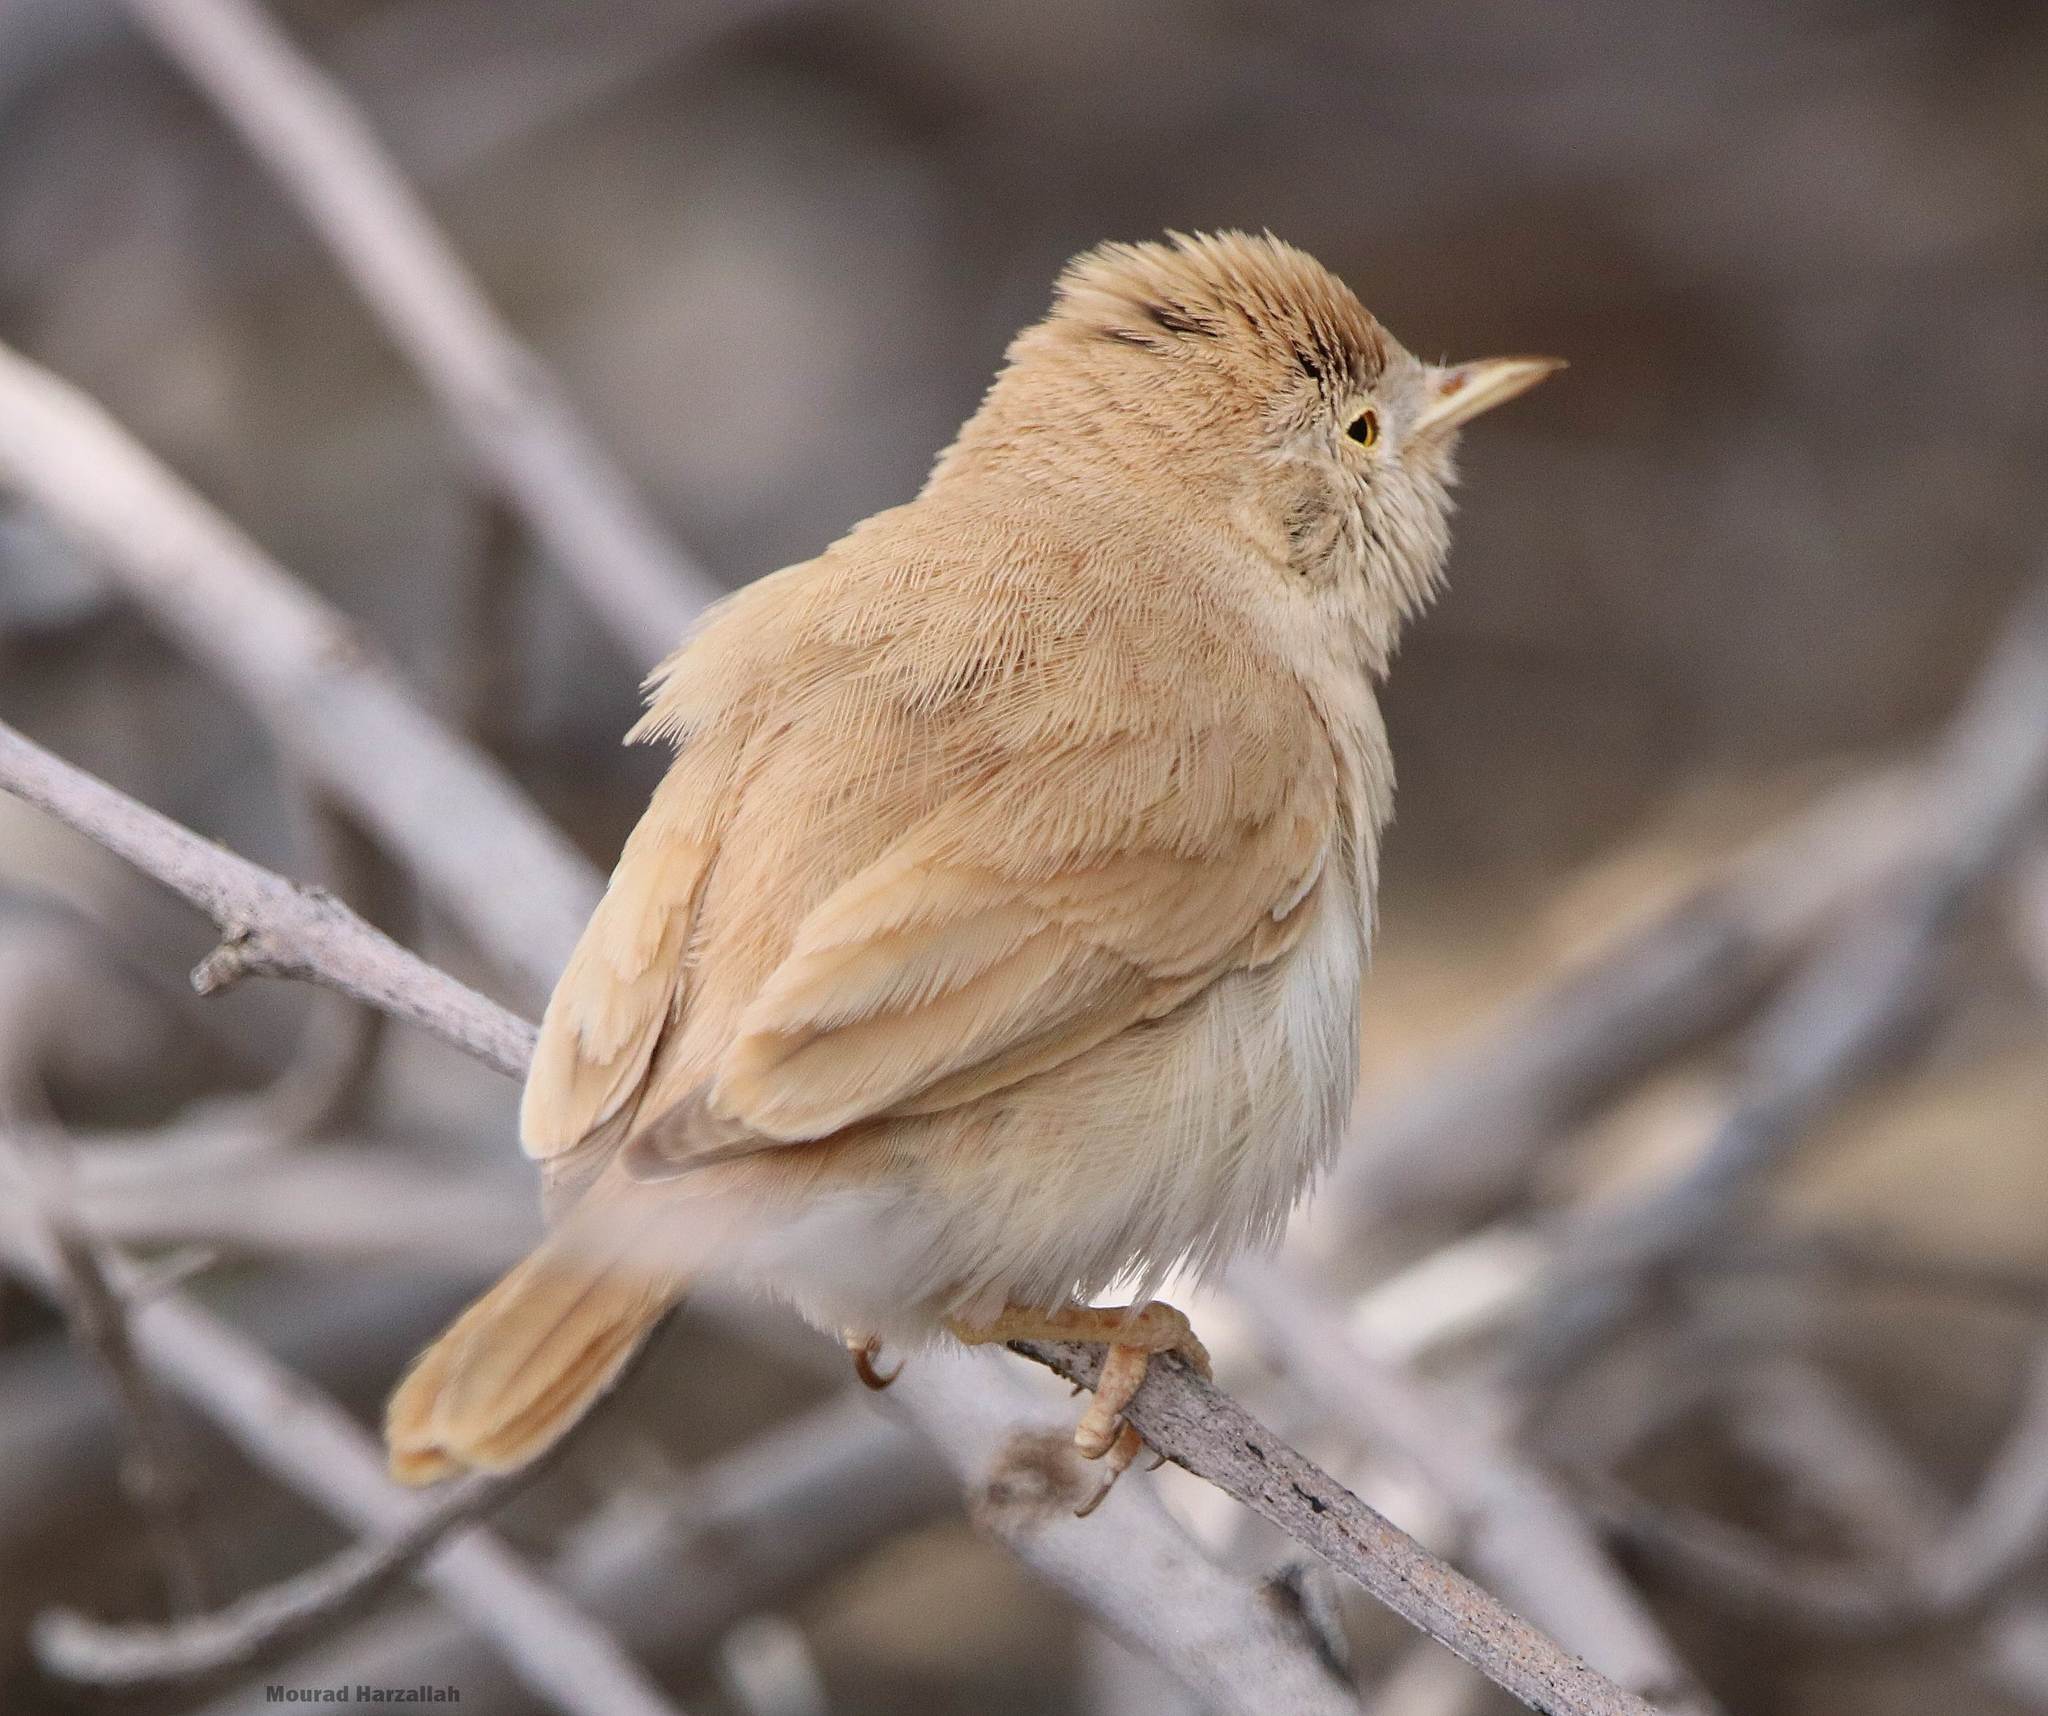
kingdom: Animalia
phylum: Chordata
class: Aves
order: Passeriformes
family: Sylviidae
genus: Sylvia
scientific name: Sylvia deserti
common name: African desert warbler
